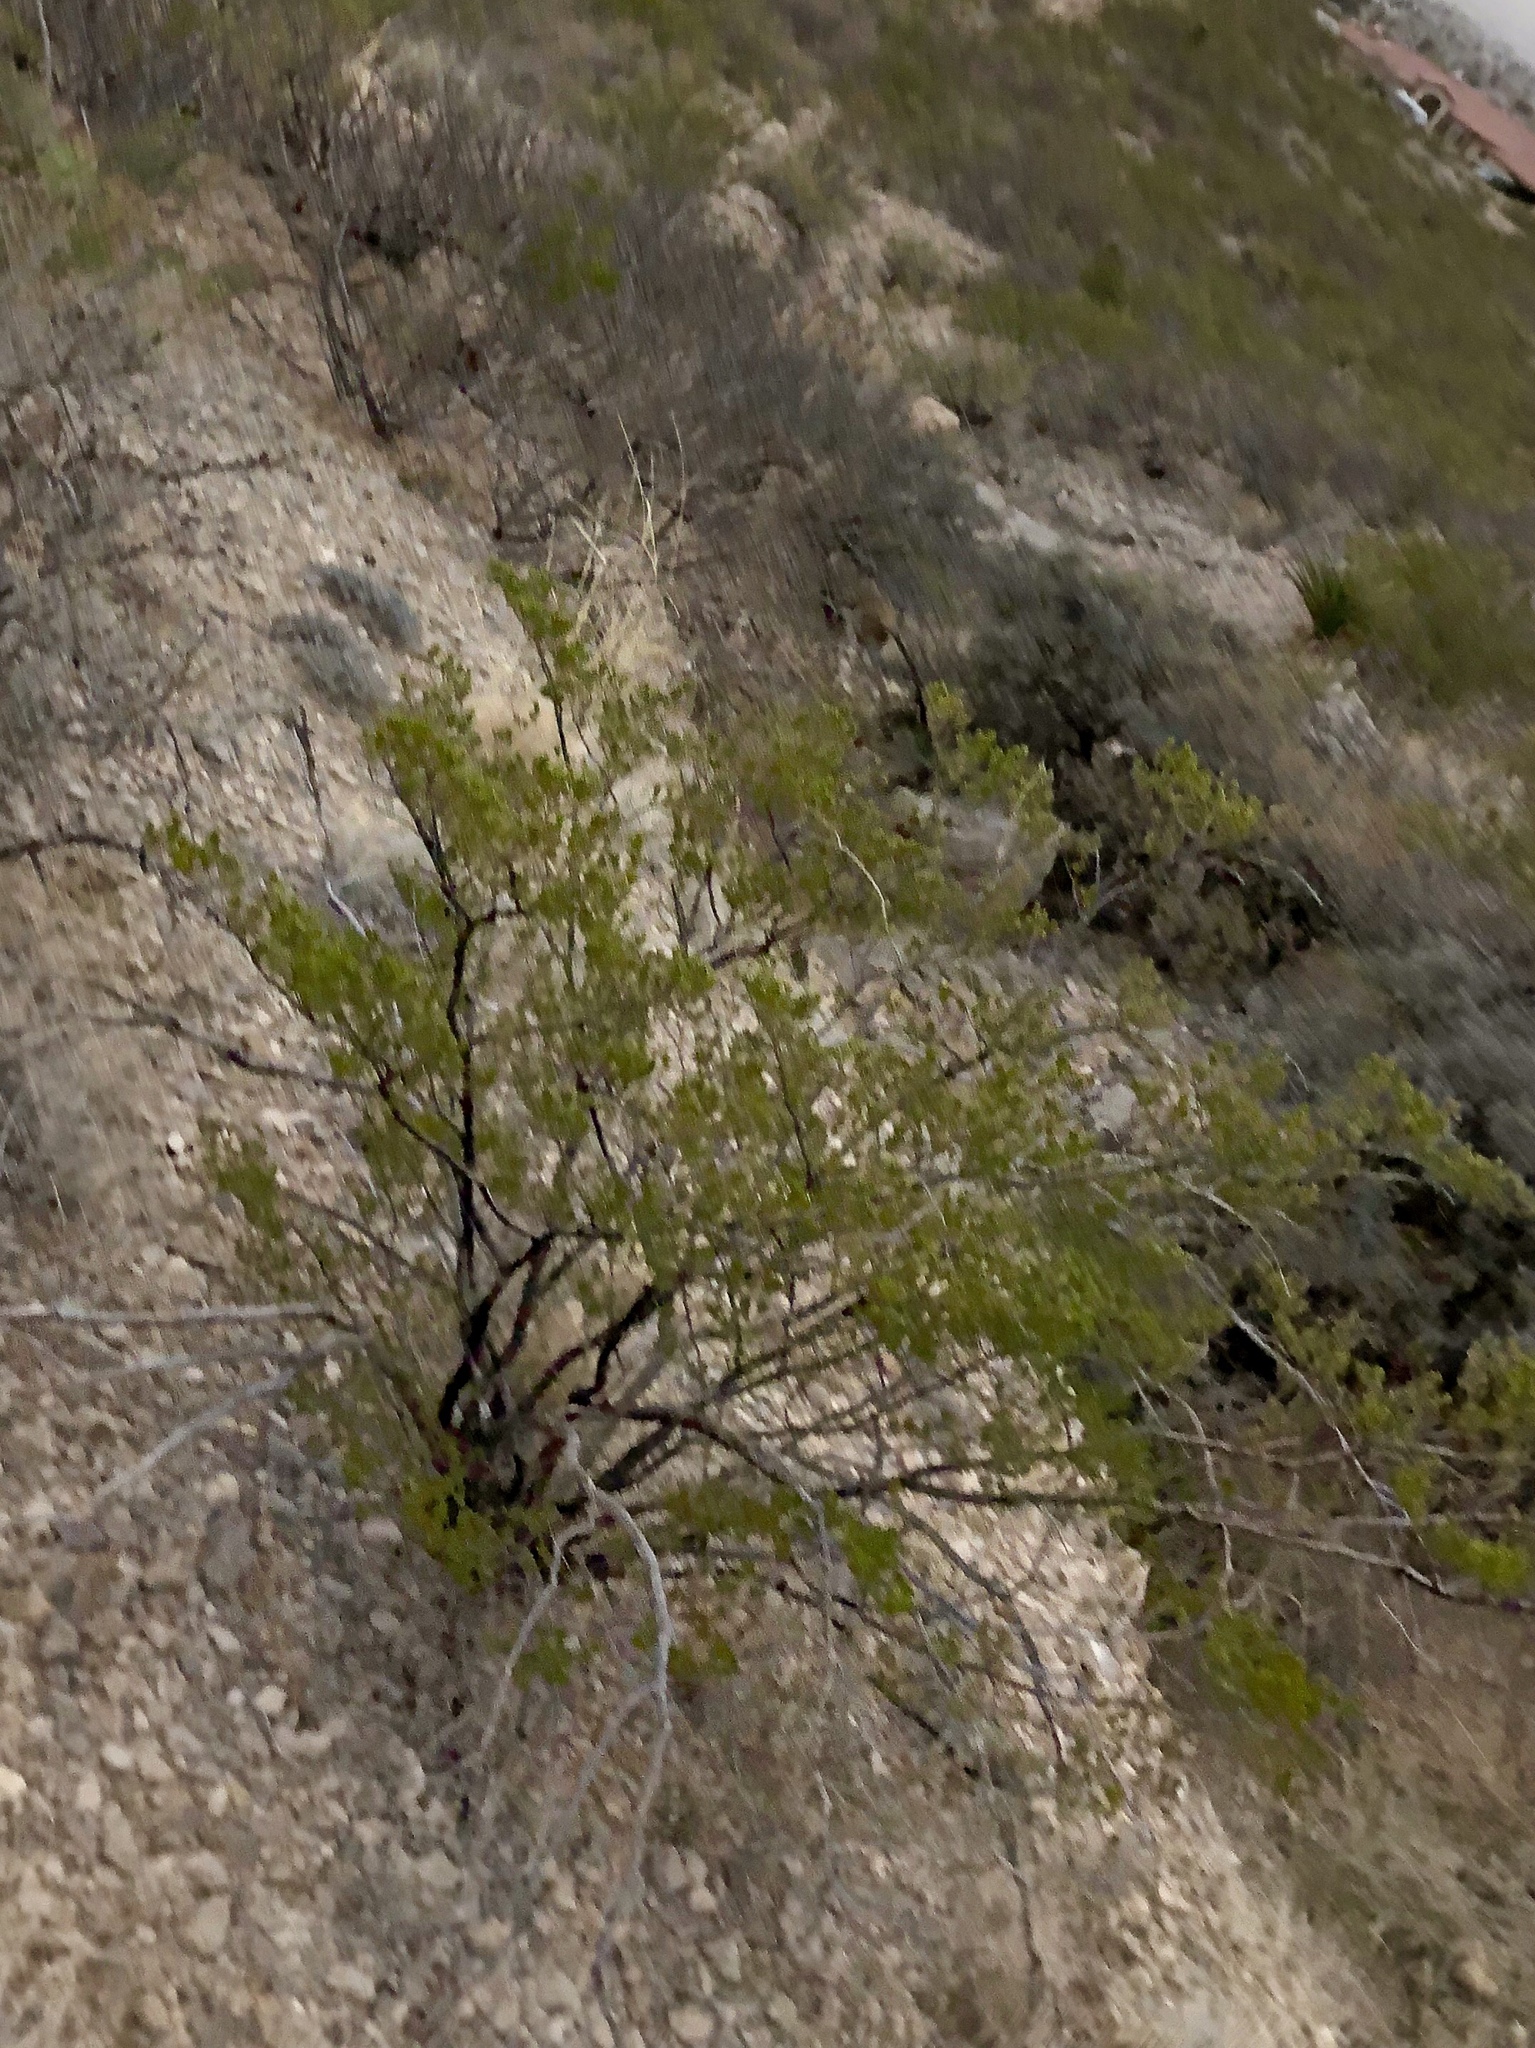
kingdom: Plantae
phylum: Tracheophyta
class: Magnoliopsida
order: Zygophyllales
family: Zygophyllaceae
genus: Larrea
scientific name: Larrea tridentata
